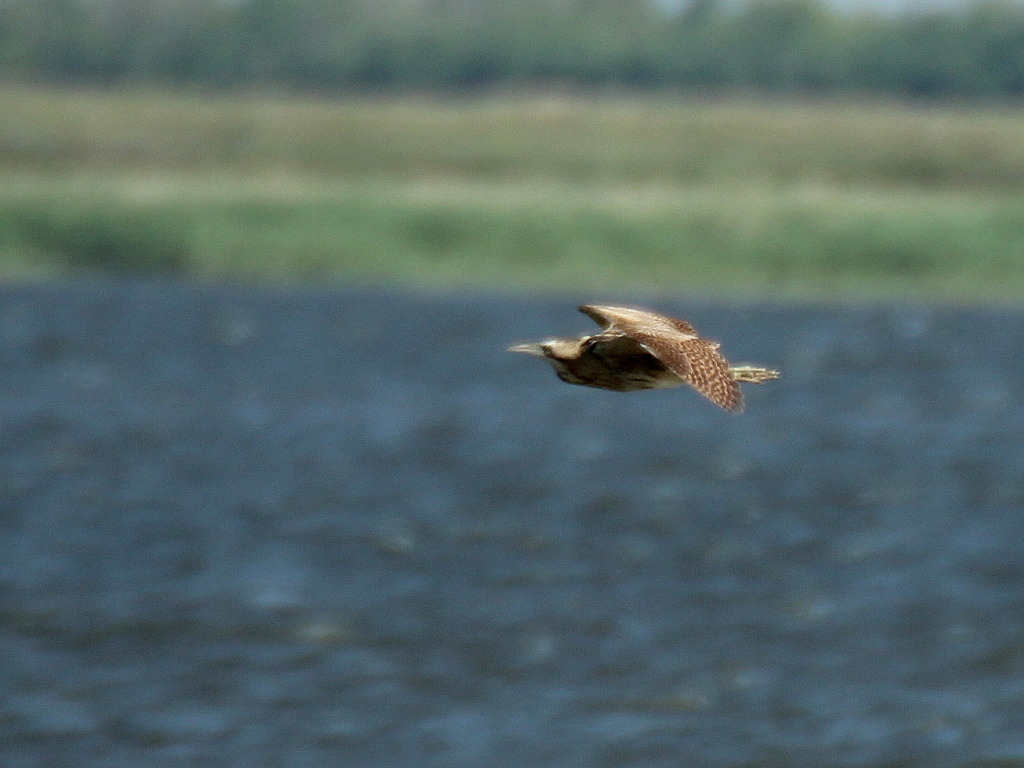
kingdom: Animalia
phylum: Chordata
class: Aves
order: Pelecaniformes
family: Ardeidae
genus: Botaurus
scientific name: Botaurus stellaris
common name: Eurasian bittern
